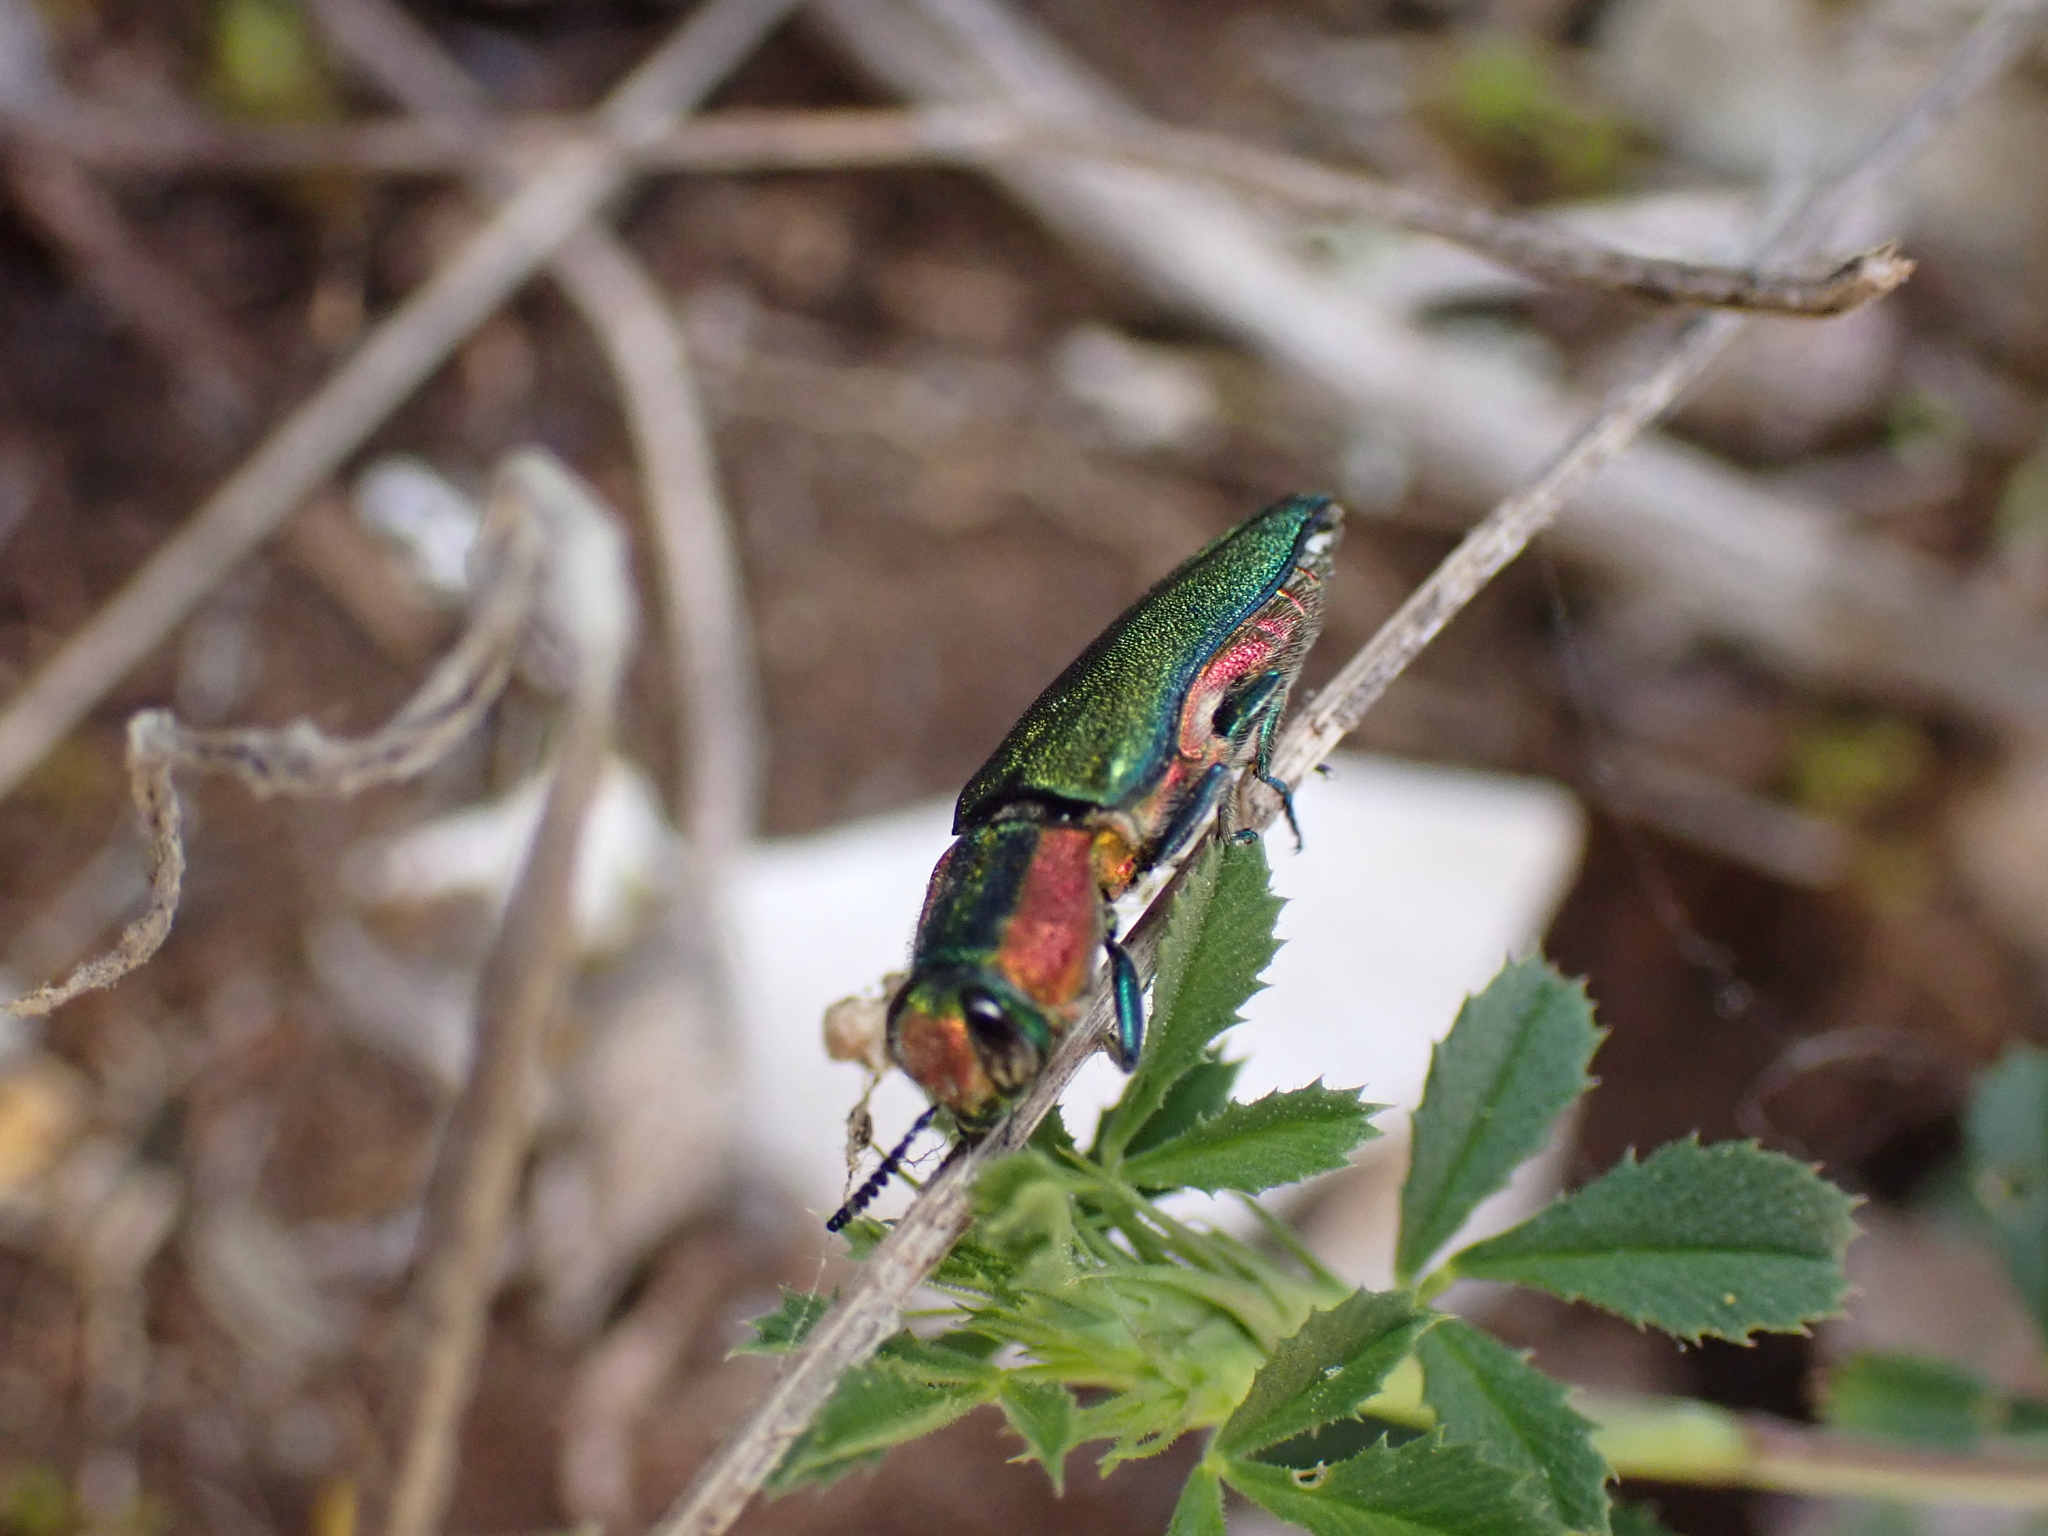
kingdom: Animalia
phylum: Arthropoda
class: Insecta
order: Coleoptera
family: Buprestidae
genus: Anthaxia
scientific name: Anthaxia hungarica
